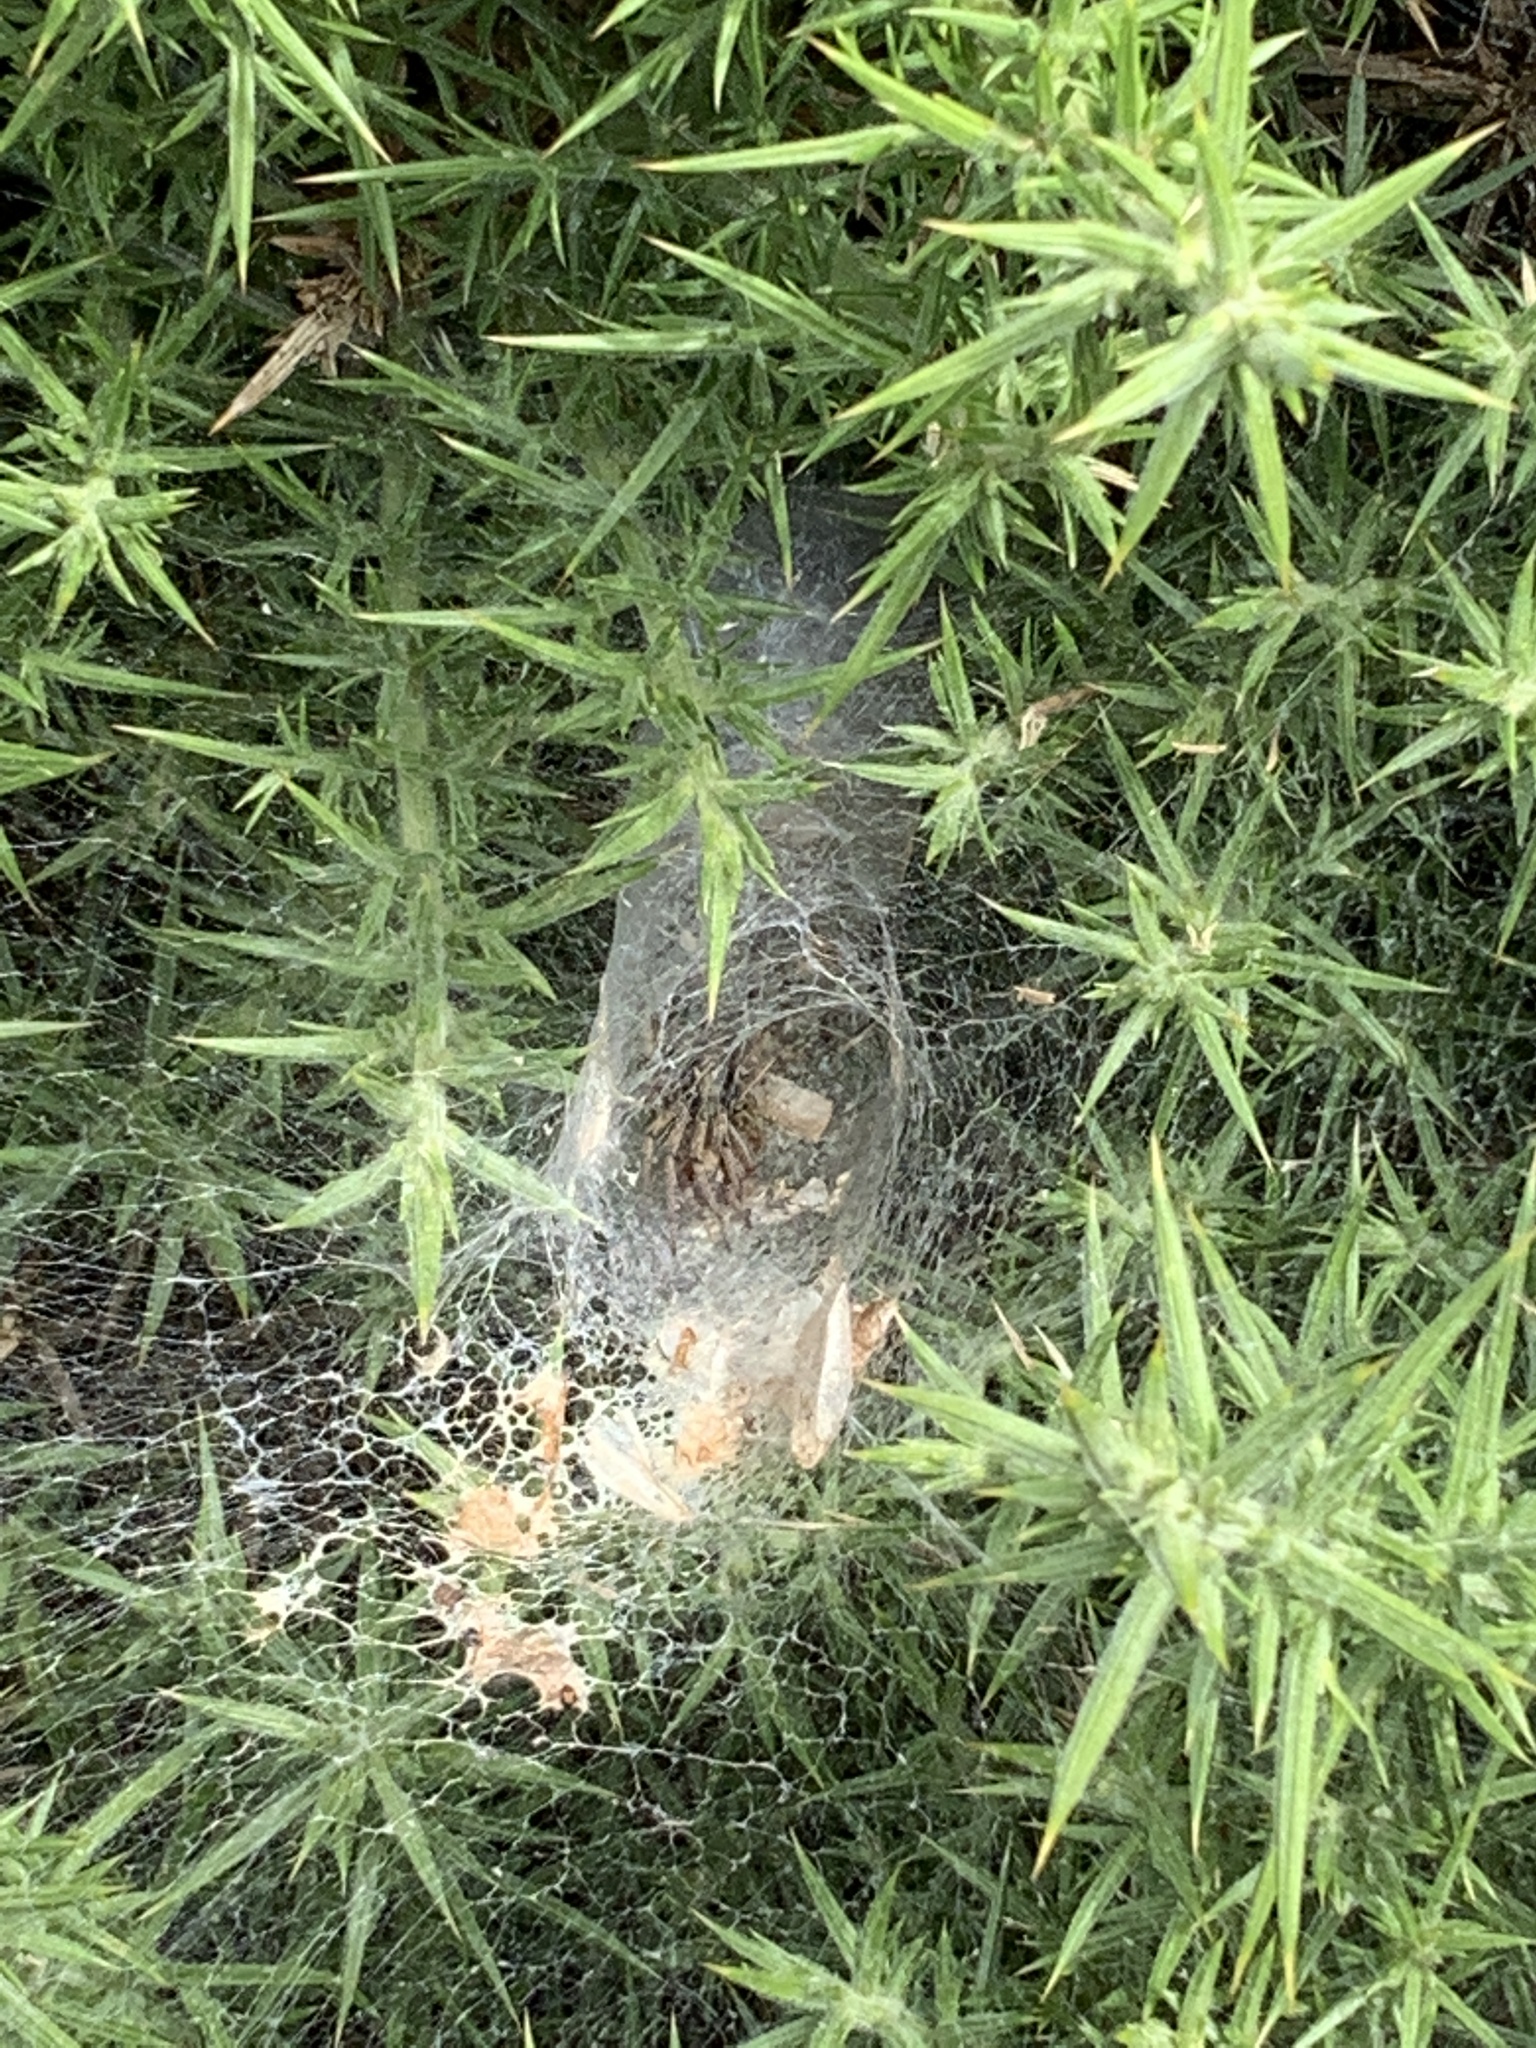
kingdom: Animalia
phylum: Arthropoda
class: Arachnida
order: Araneae
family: Agelenidae
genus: Agelena
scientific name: Agelena labyrinthica
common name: Labyrinth spider
